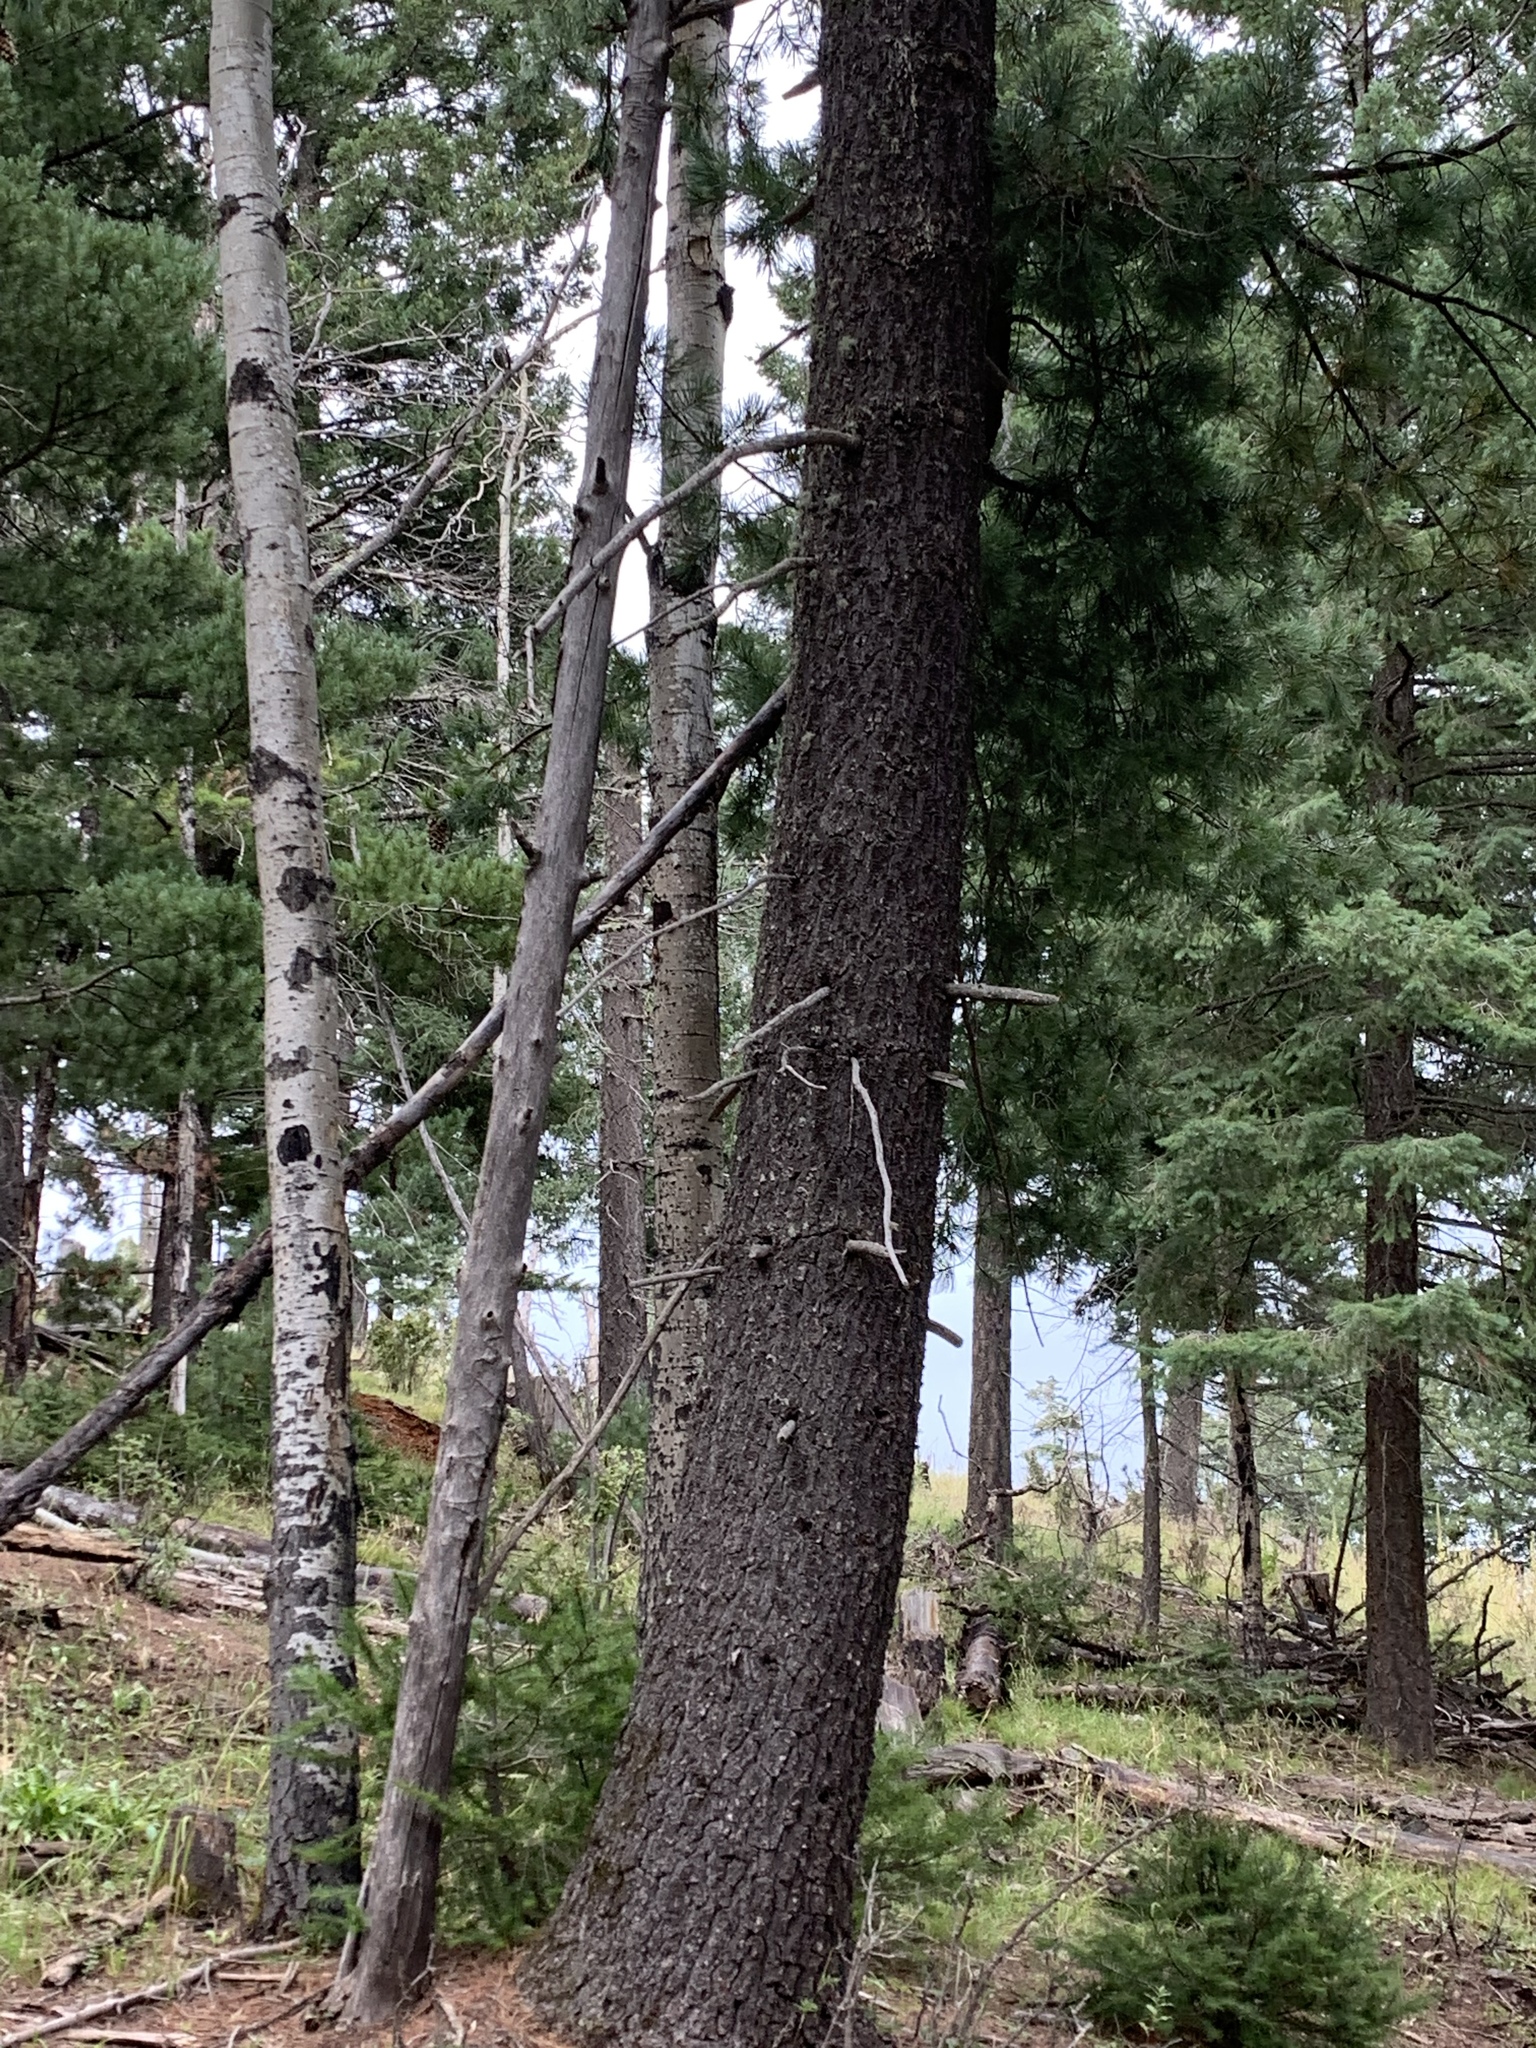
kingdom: Plantae
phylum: Tracheophyta
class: Pinopsida
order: Pinales
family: Pinaceae
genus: Pinus
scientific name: Pinus strobiformis
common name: Southwestern white pine
